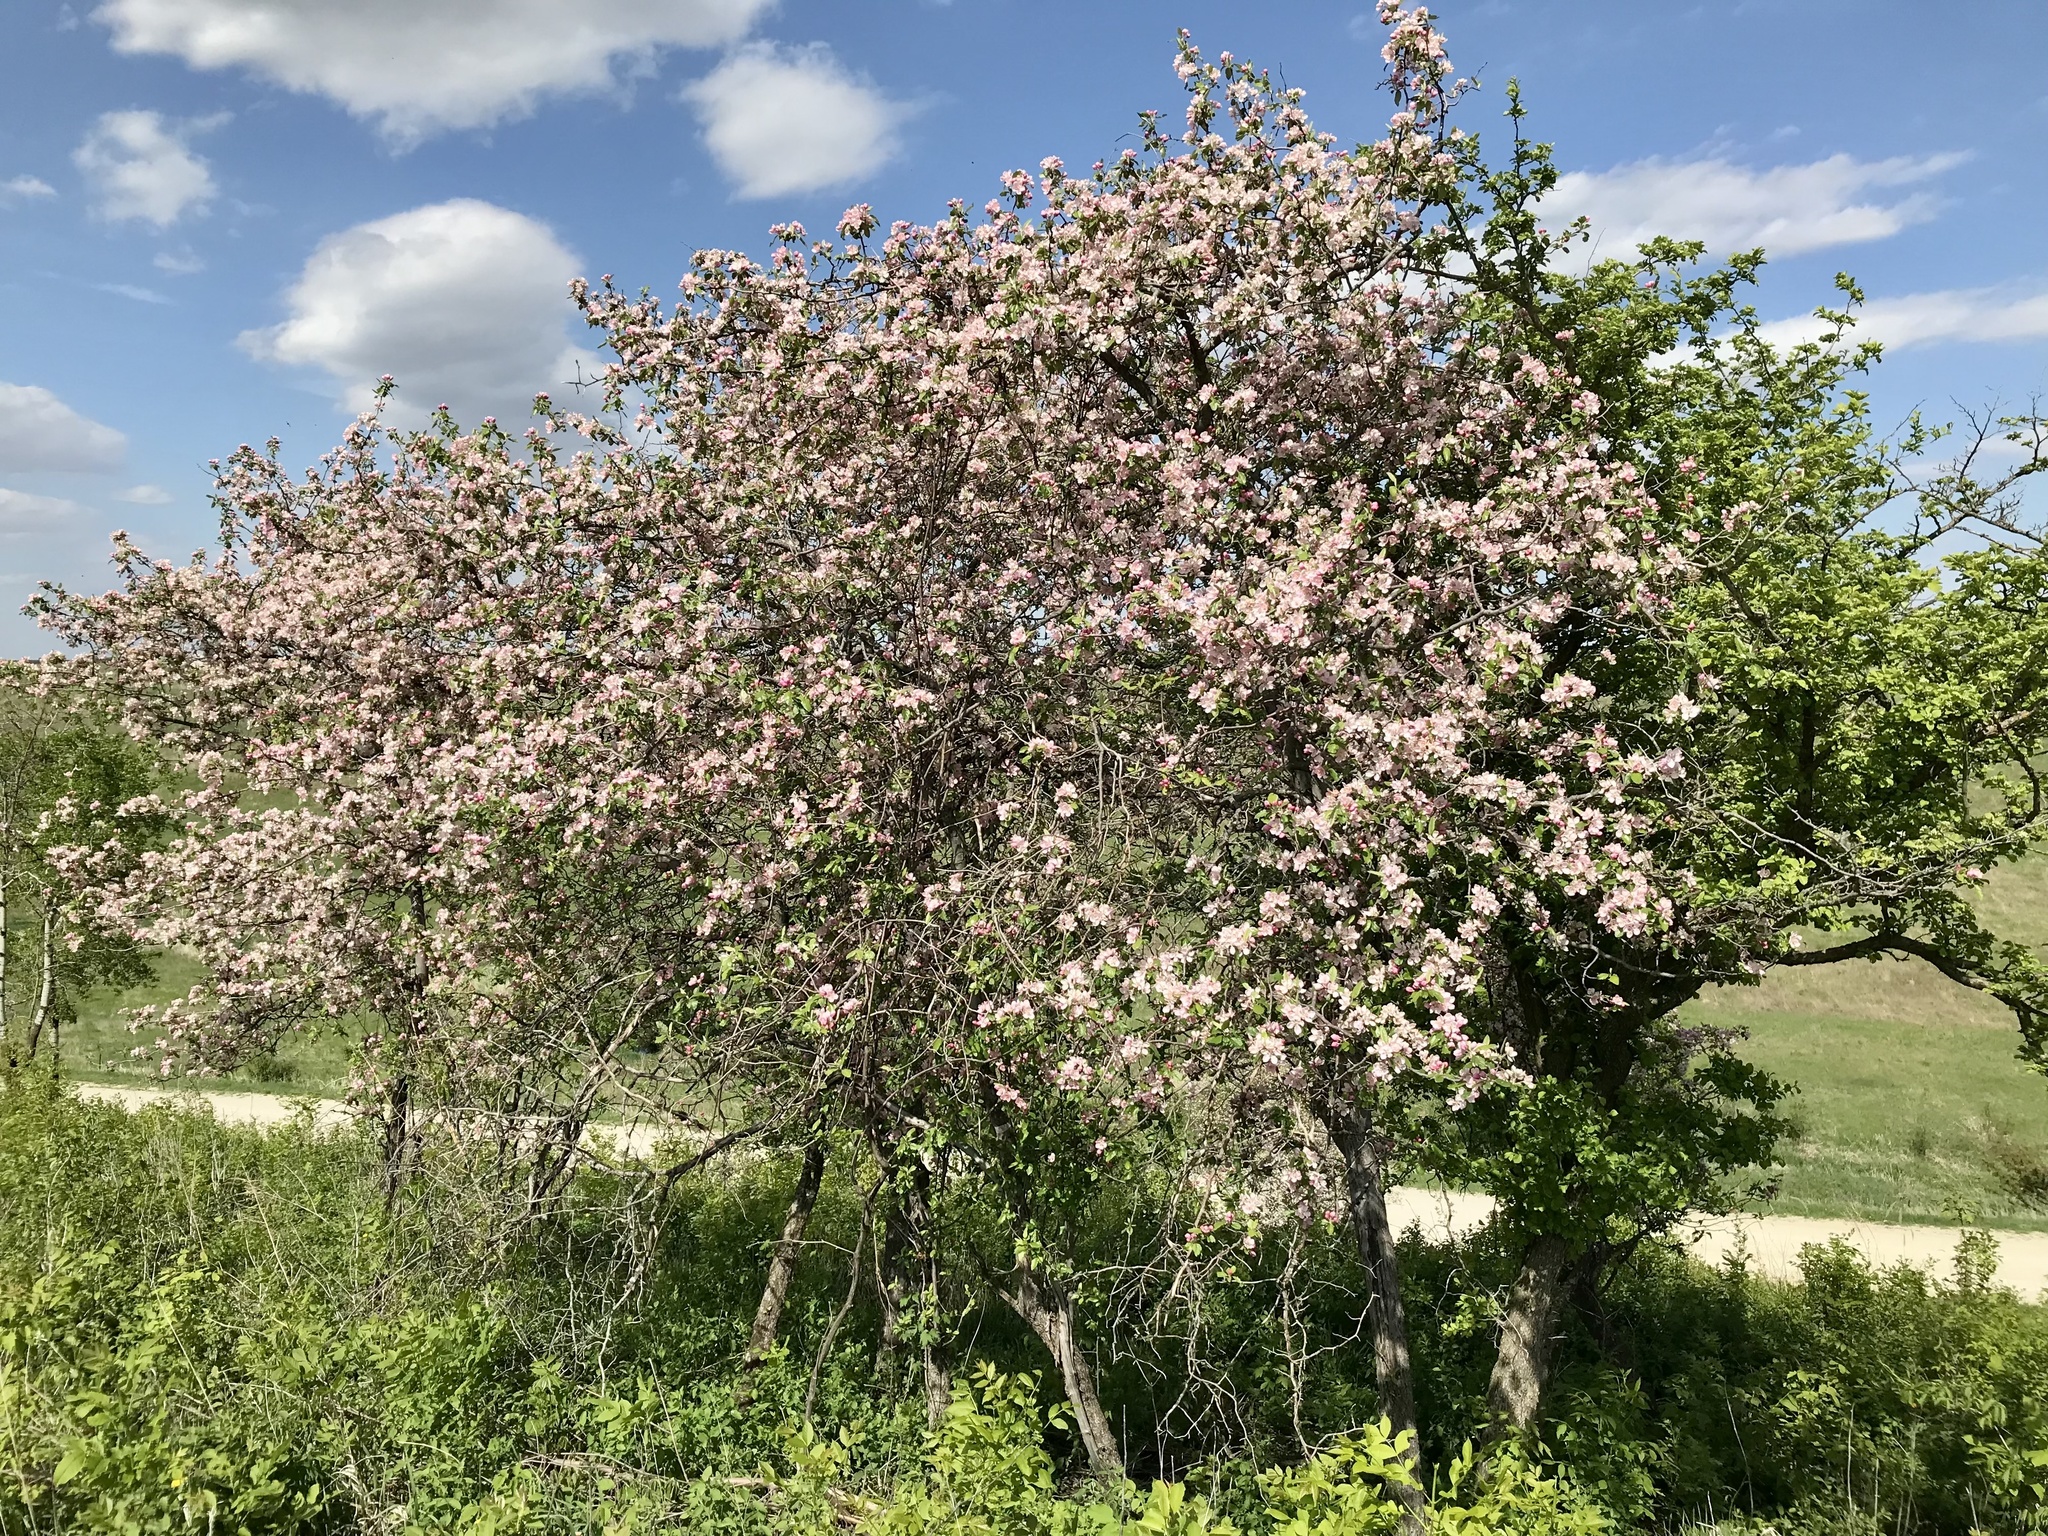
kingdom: Plantae
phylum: Tracheophyta
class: Magnoliopsida
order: Rosales
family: Rosaceae
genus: Malus
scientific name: Malus ioensis
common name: Iowa crab apple
